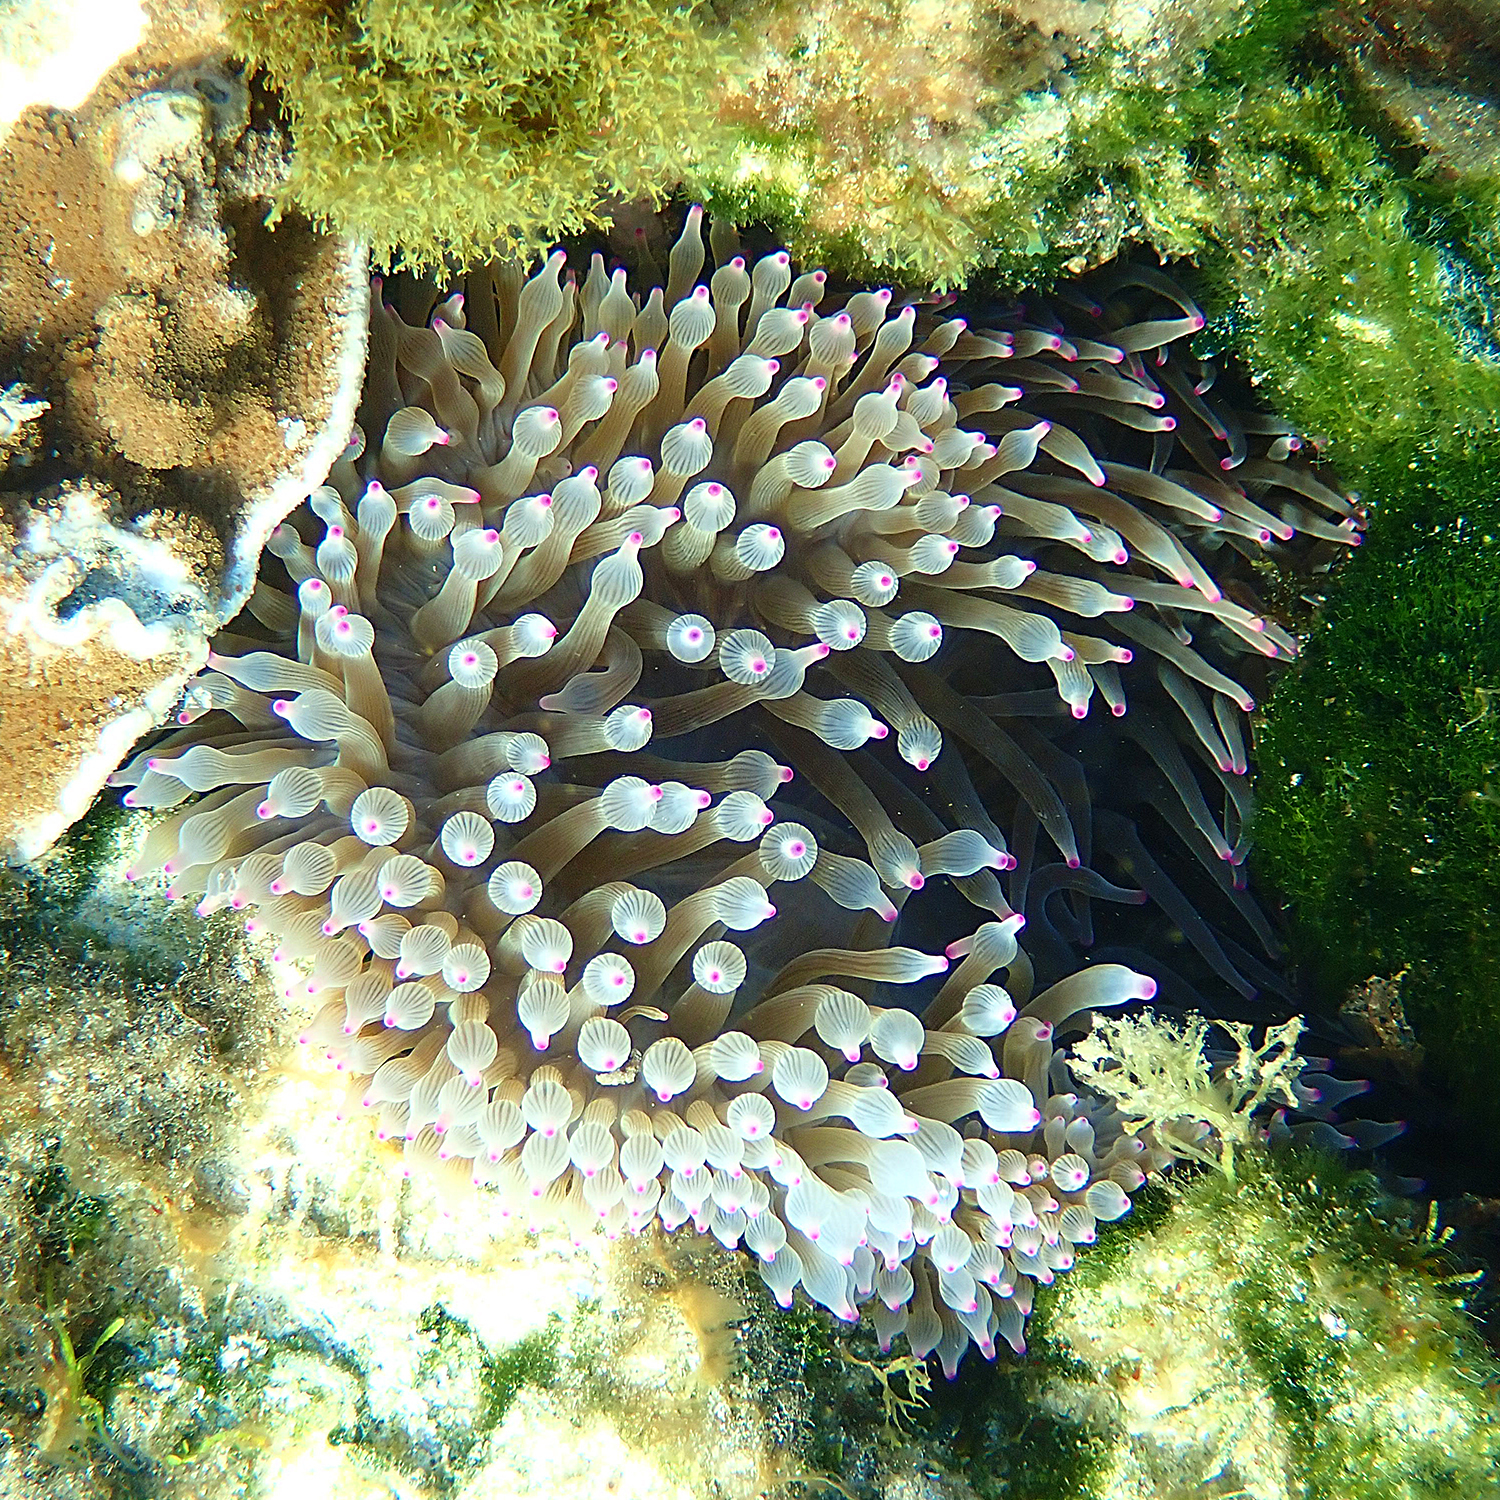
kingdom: Animalia
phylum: Cnidaria
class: Anthozoa
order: Actiniaria
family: Actiniidae
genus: Entacmaea
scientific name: Entacmaea quadricolor
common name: Bulb tentacle sea anemone
